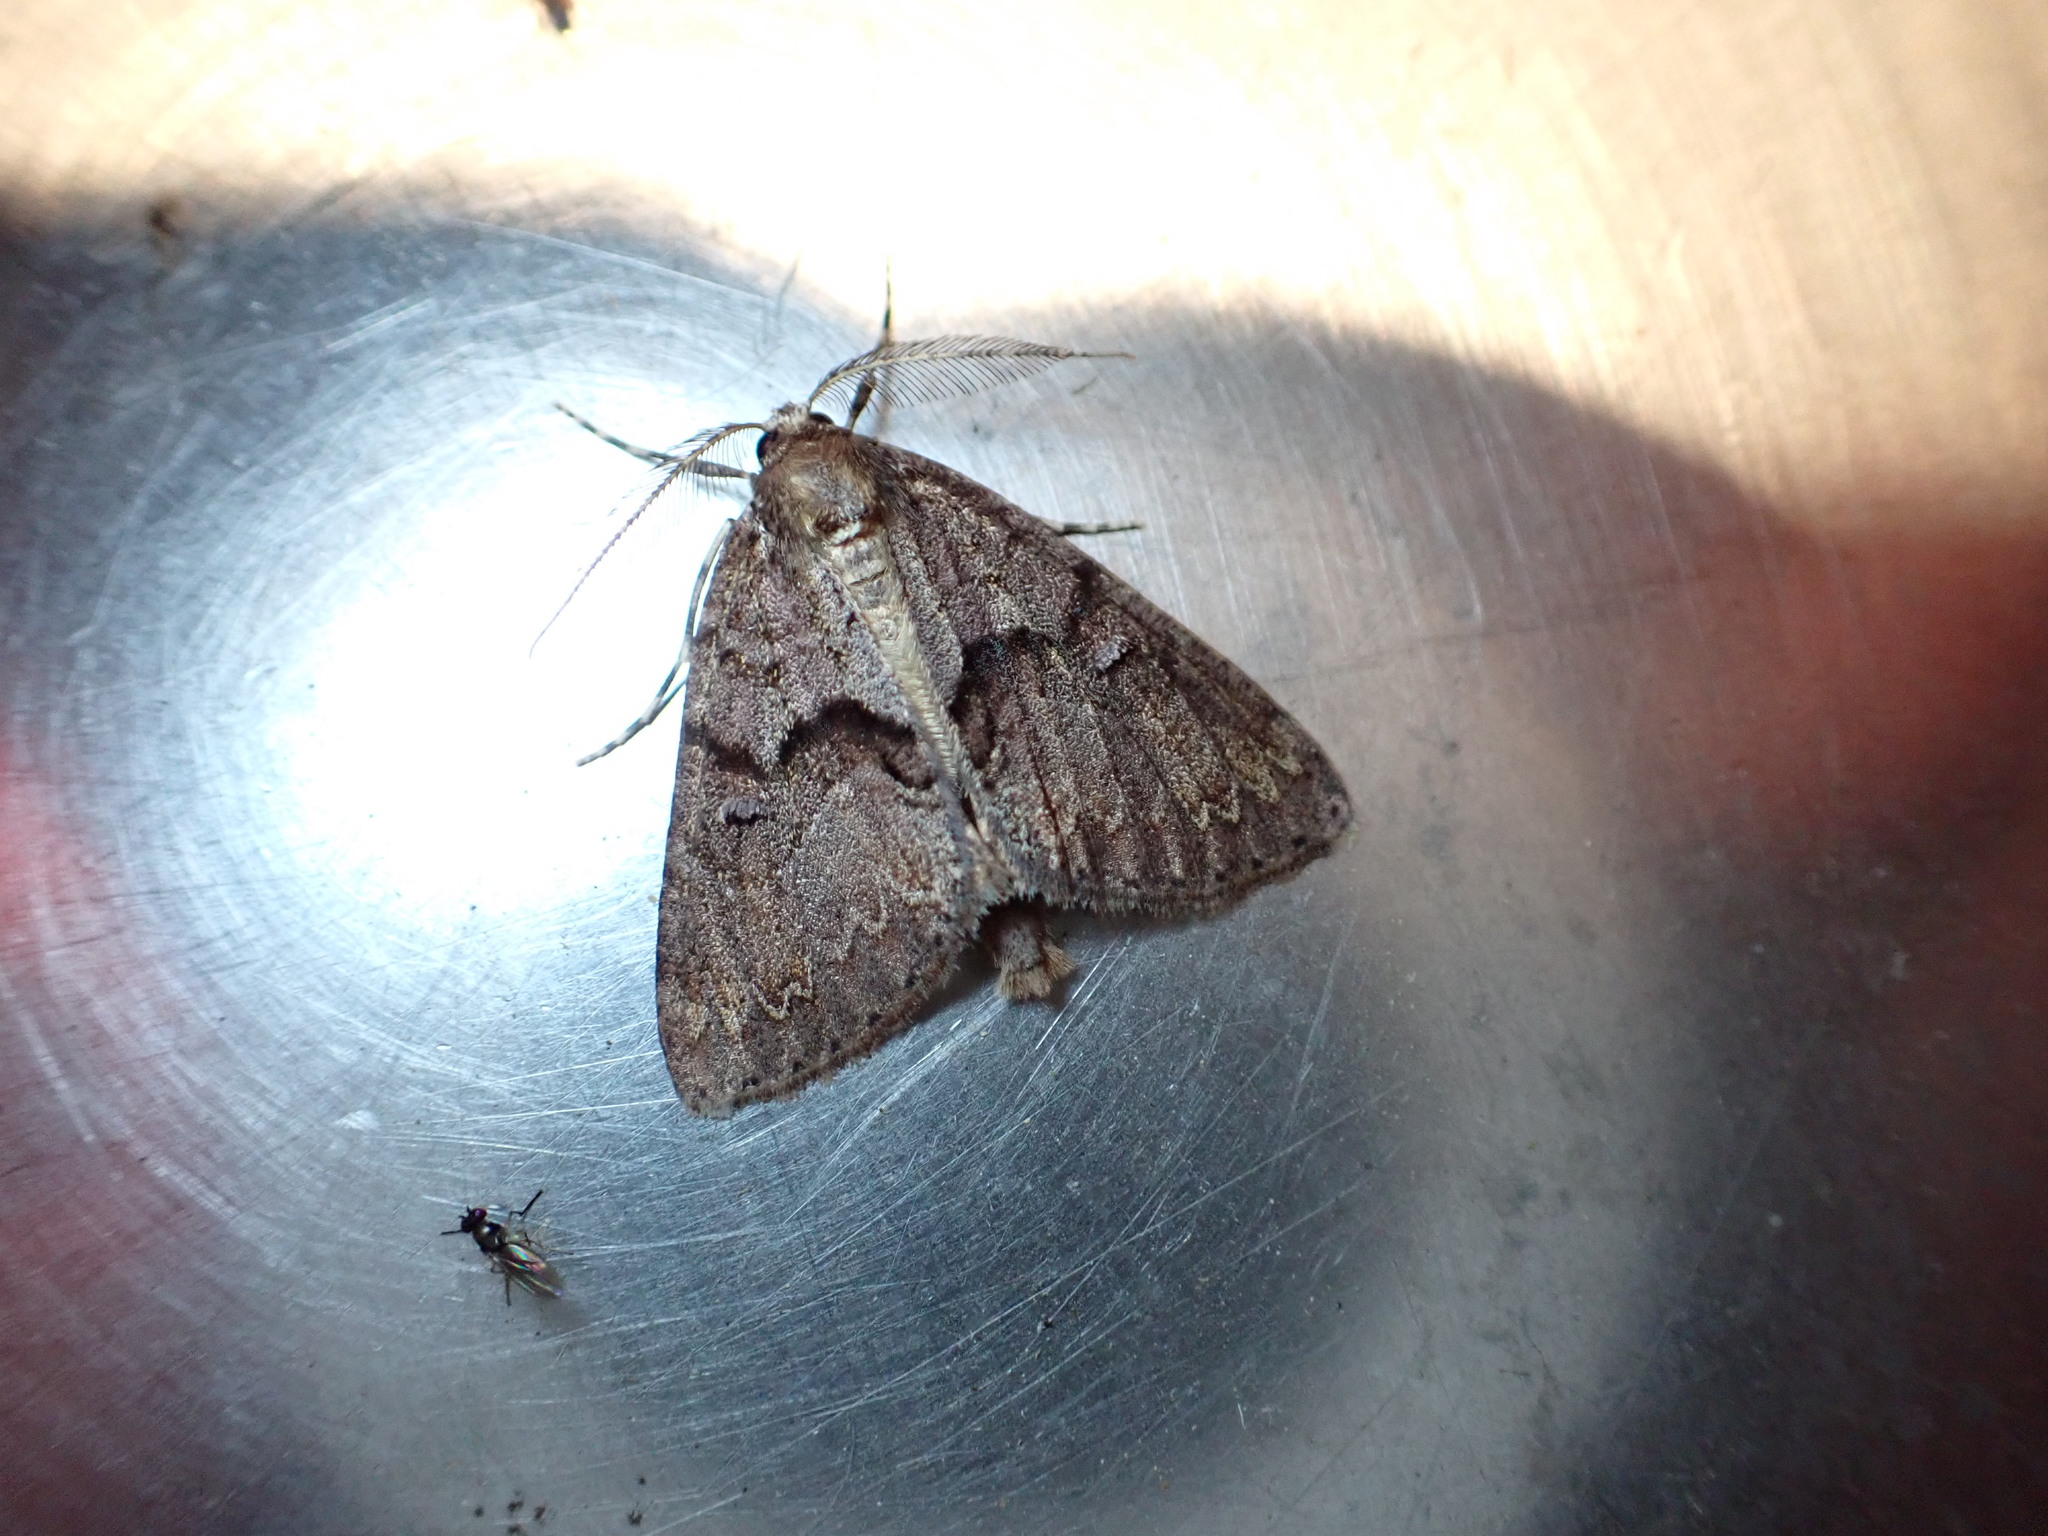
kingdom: Animalia
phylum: Arthropoda
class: Insecta
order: Lepidoptera
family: Geometridae
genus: Pseudocoremia
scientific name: Pseudocoremia suavis
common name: Common forest looper
